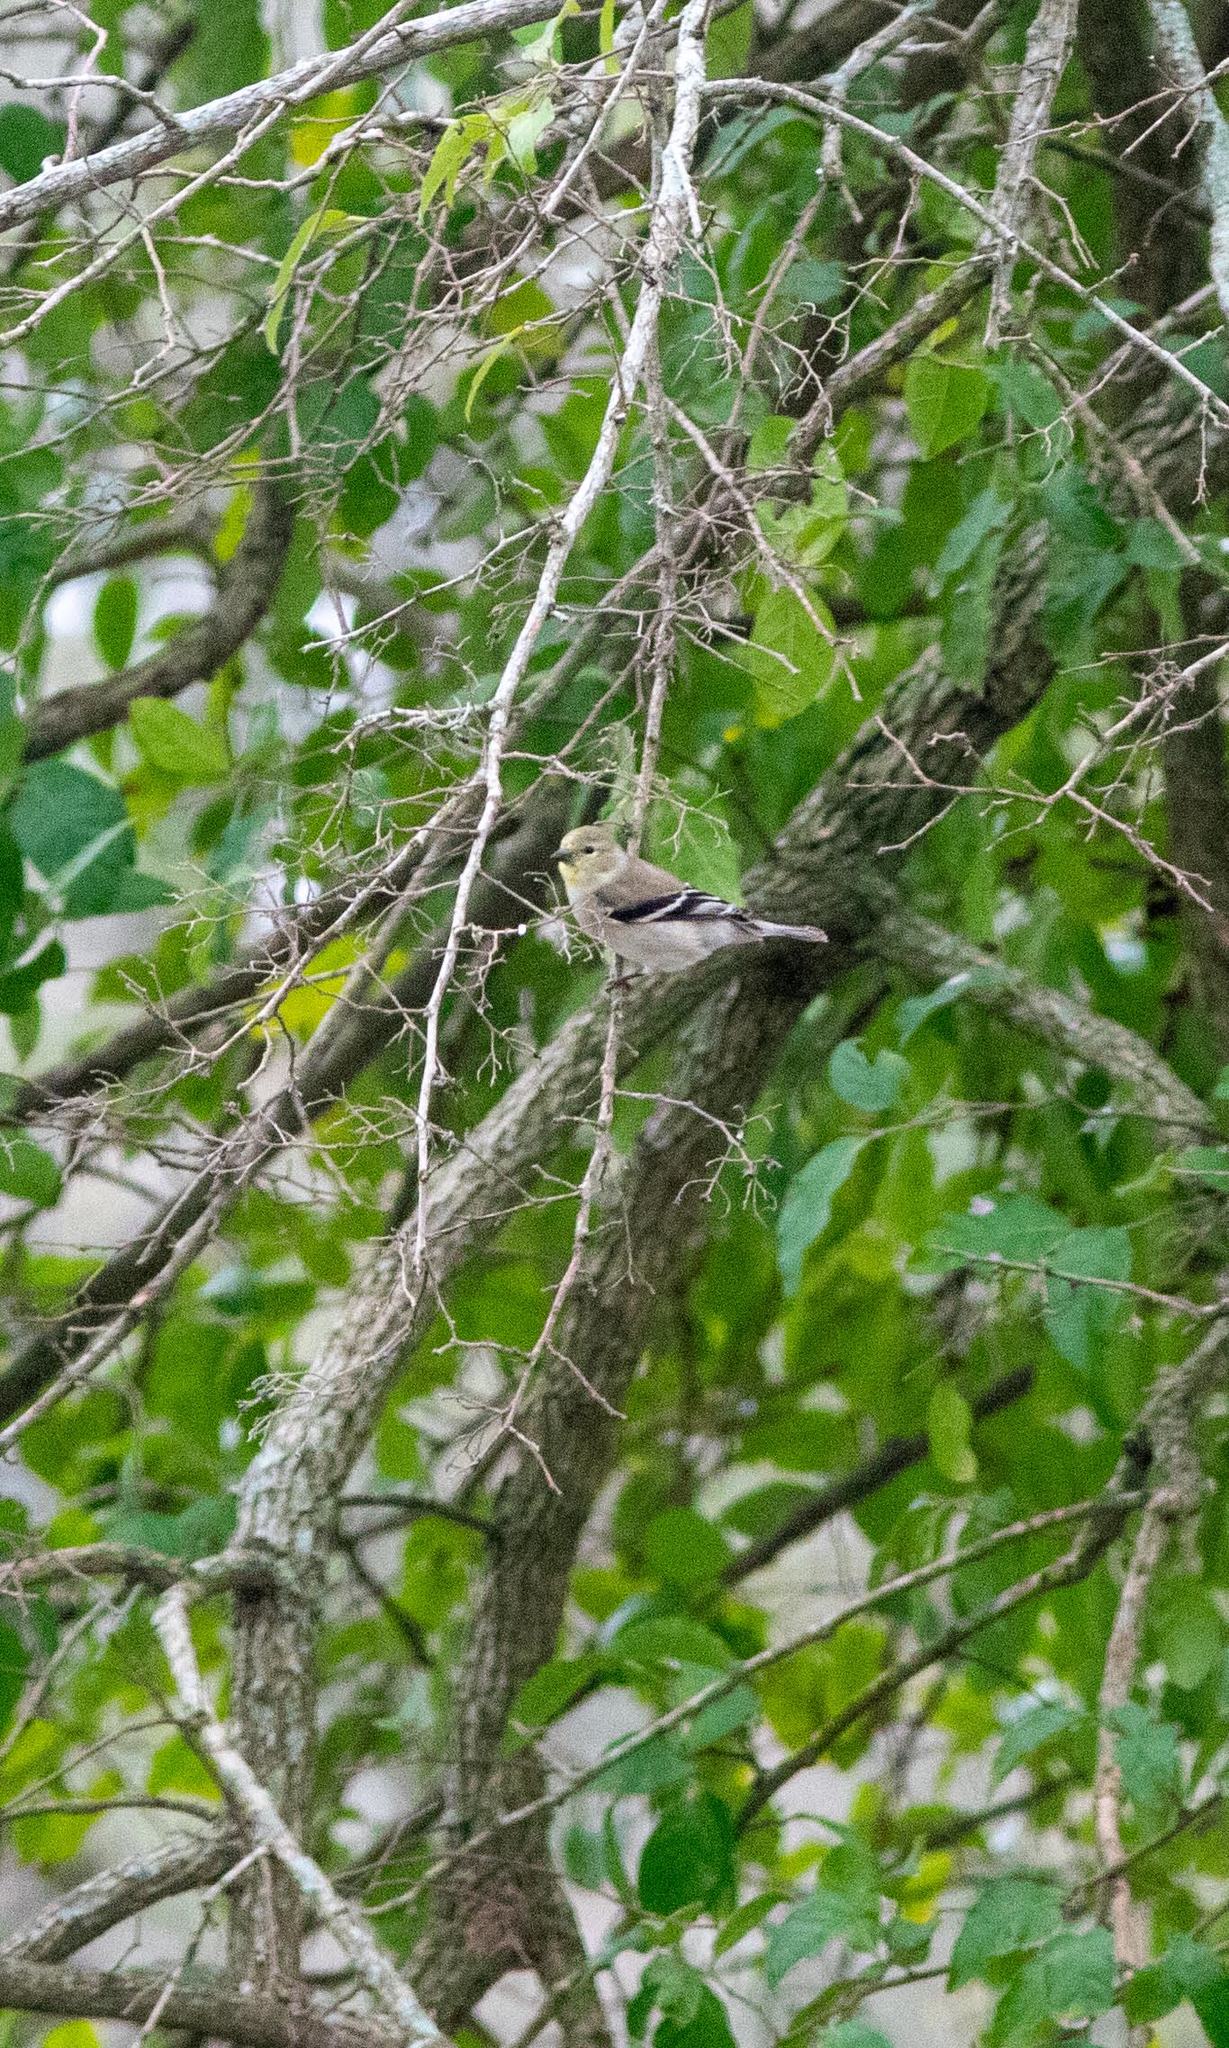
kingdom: Animalia
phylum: Chordata
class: Aves
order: Passeriformes
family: Fringillidae
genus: Spinus
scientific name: Spinus tristis
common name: American goldfinch
